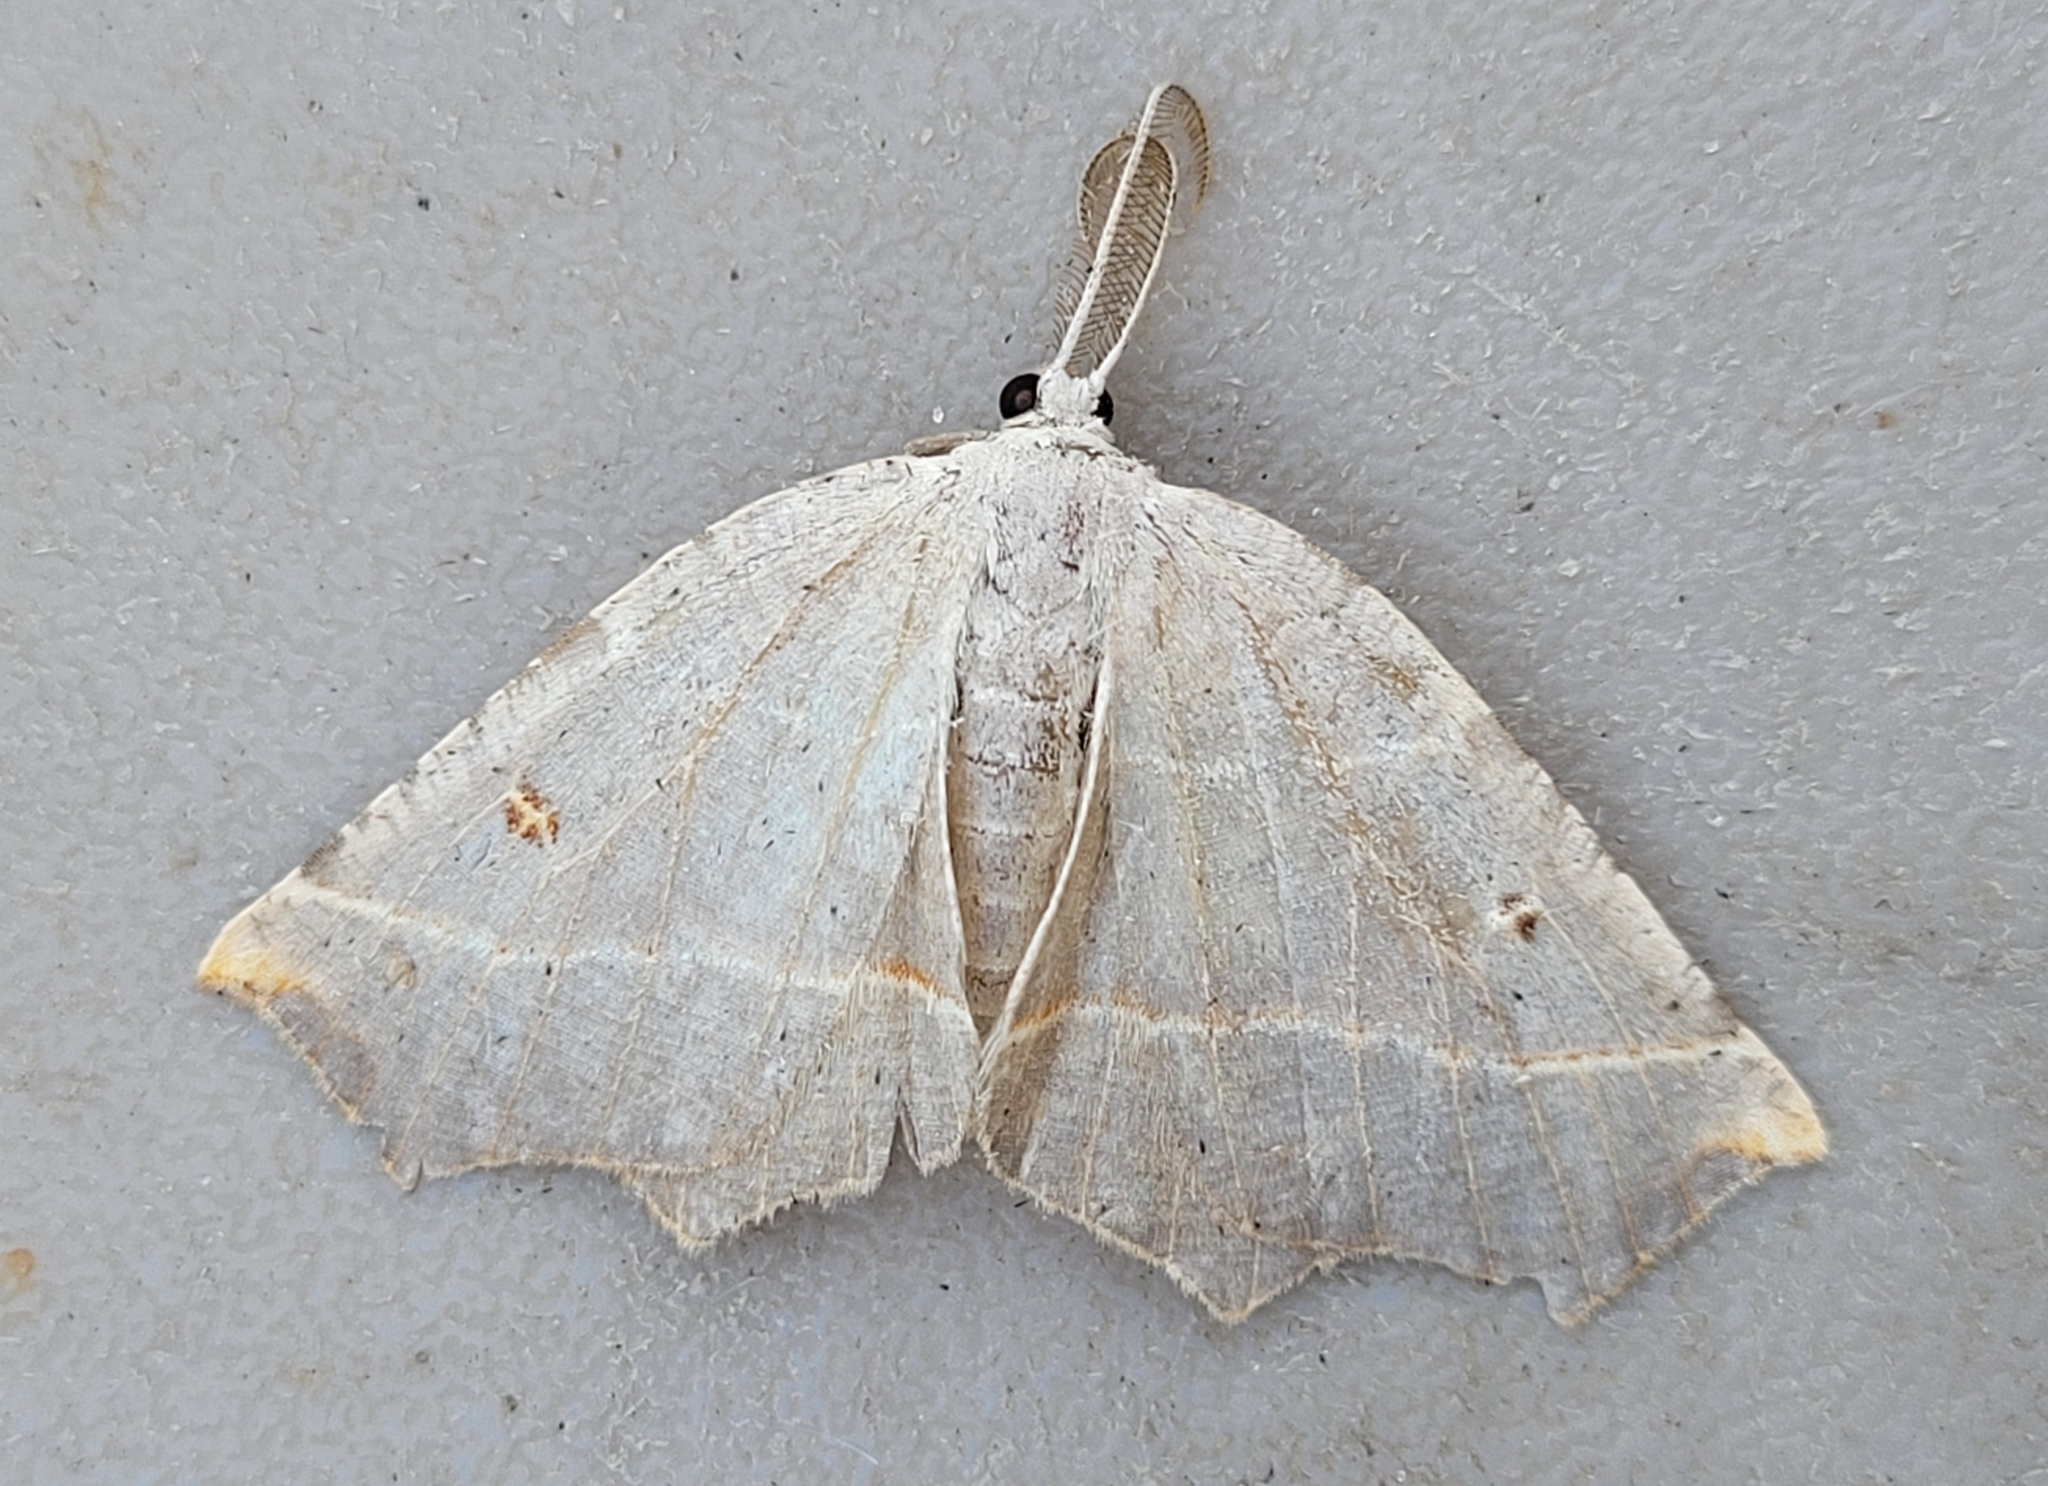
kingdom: Animalia
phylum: Arthropoda
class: Insecta
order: Lepidoptera
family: Geometridae
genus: Metanema
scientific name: Metanema inatomaria
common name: Pale metanema
